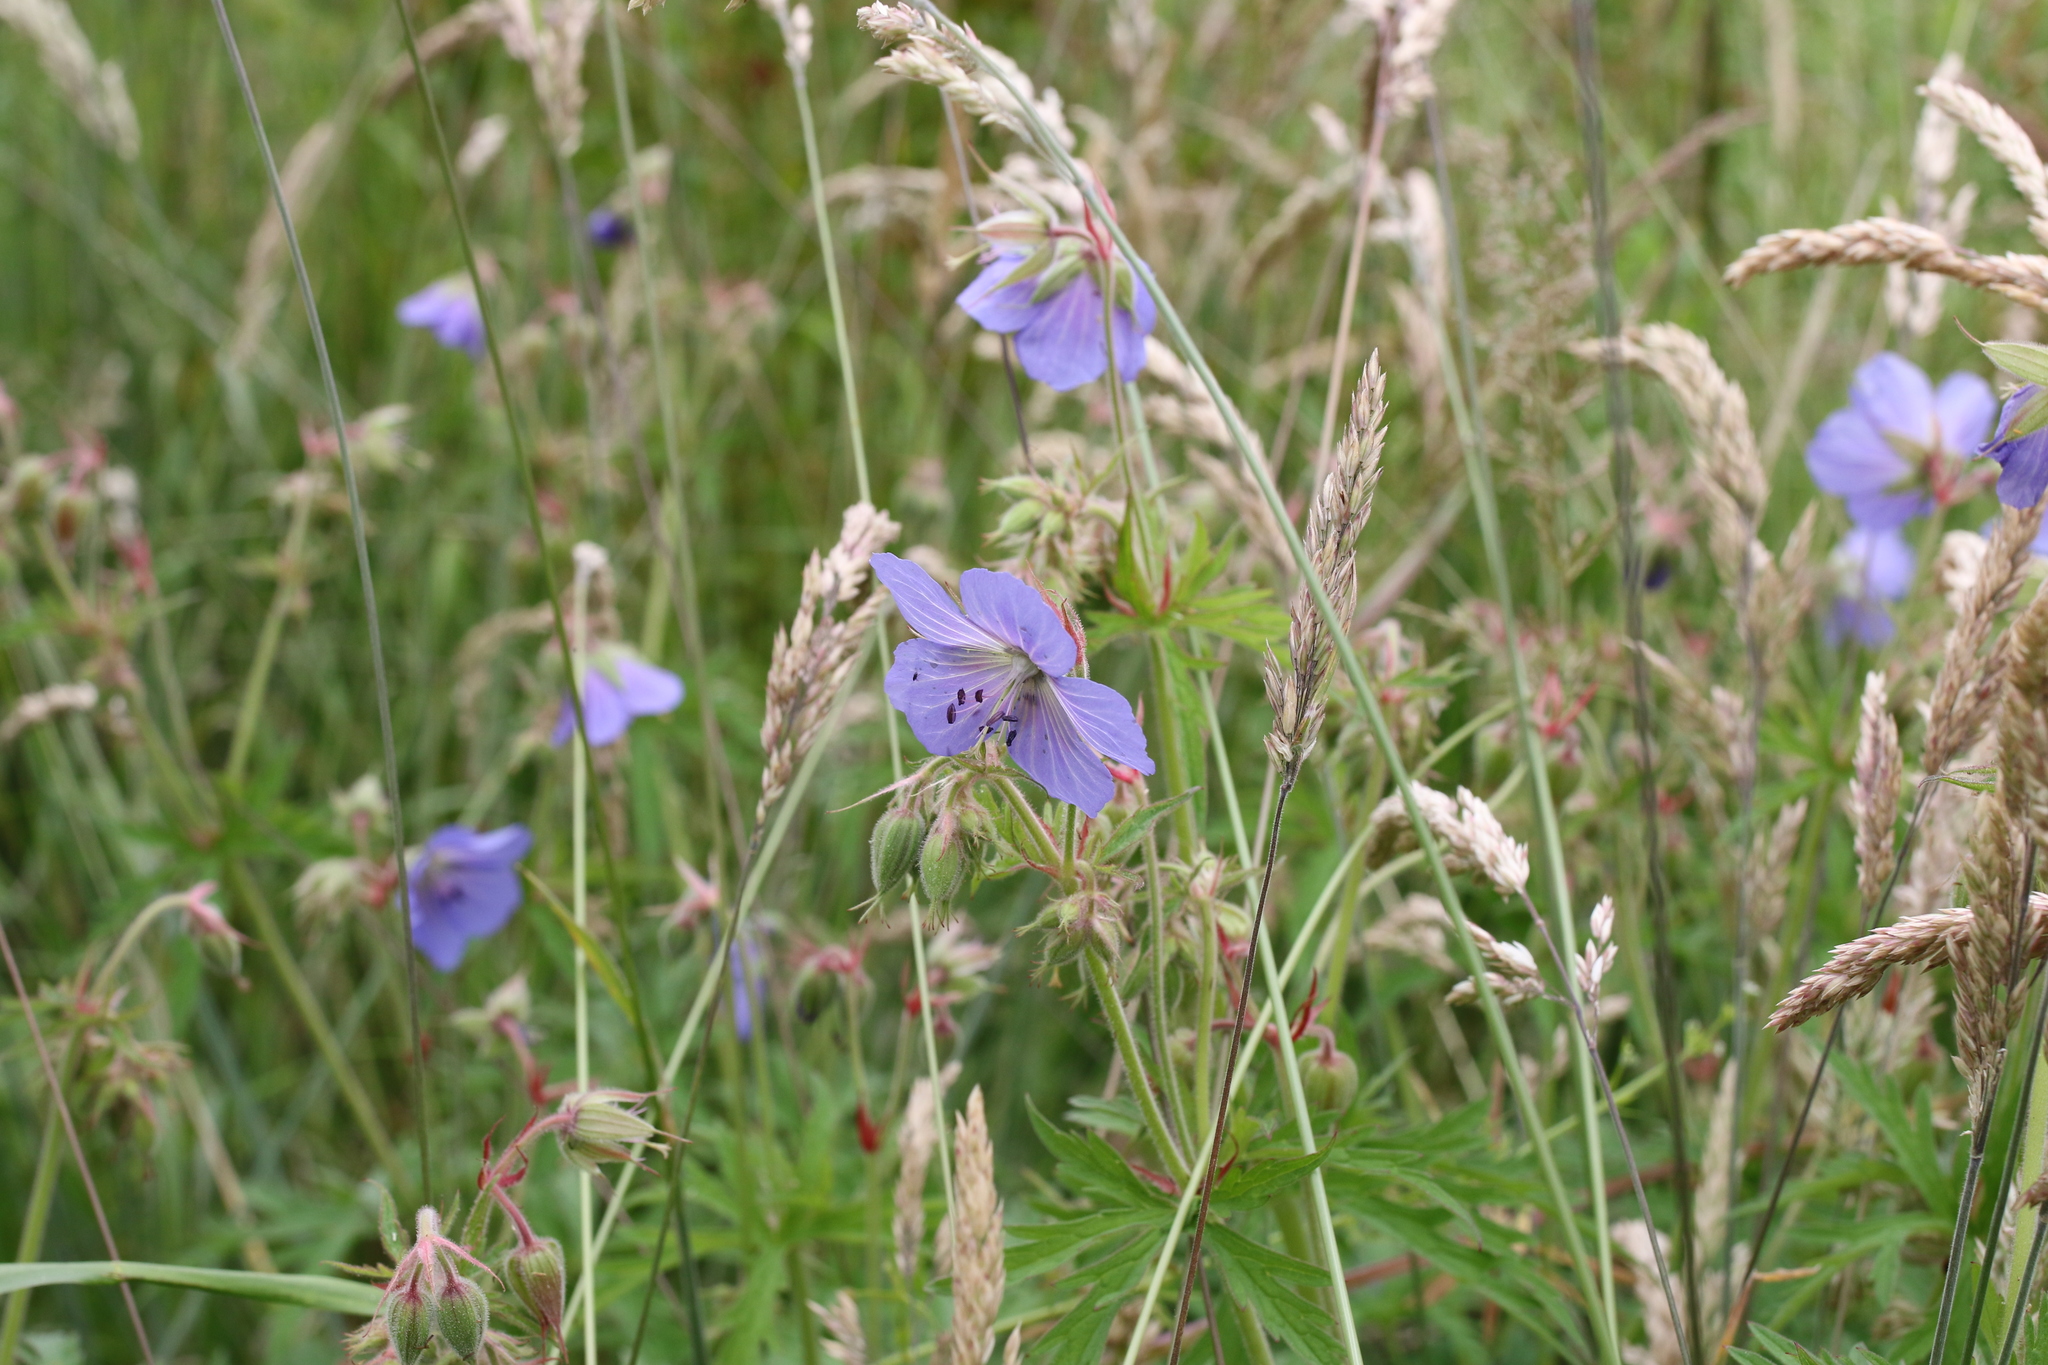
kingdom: Plantae
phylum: Tracheophyta
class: Magnoliopsida
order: Geraniales
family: Geraniaceae
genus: Geranium
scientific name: Geranium pratense
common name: Meadow crane's-bill
